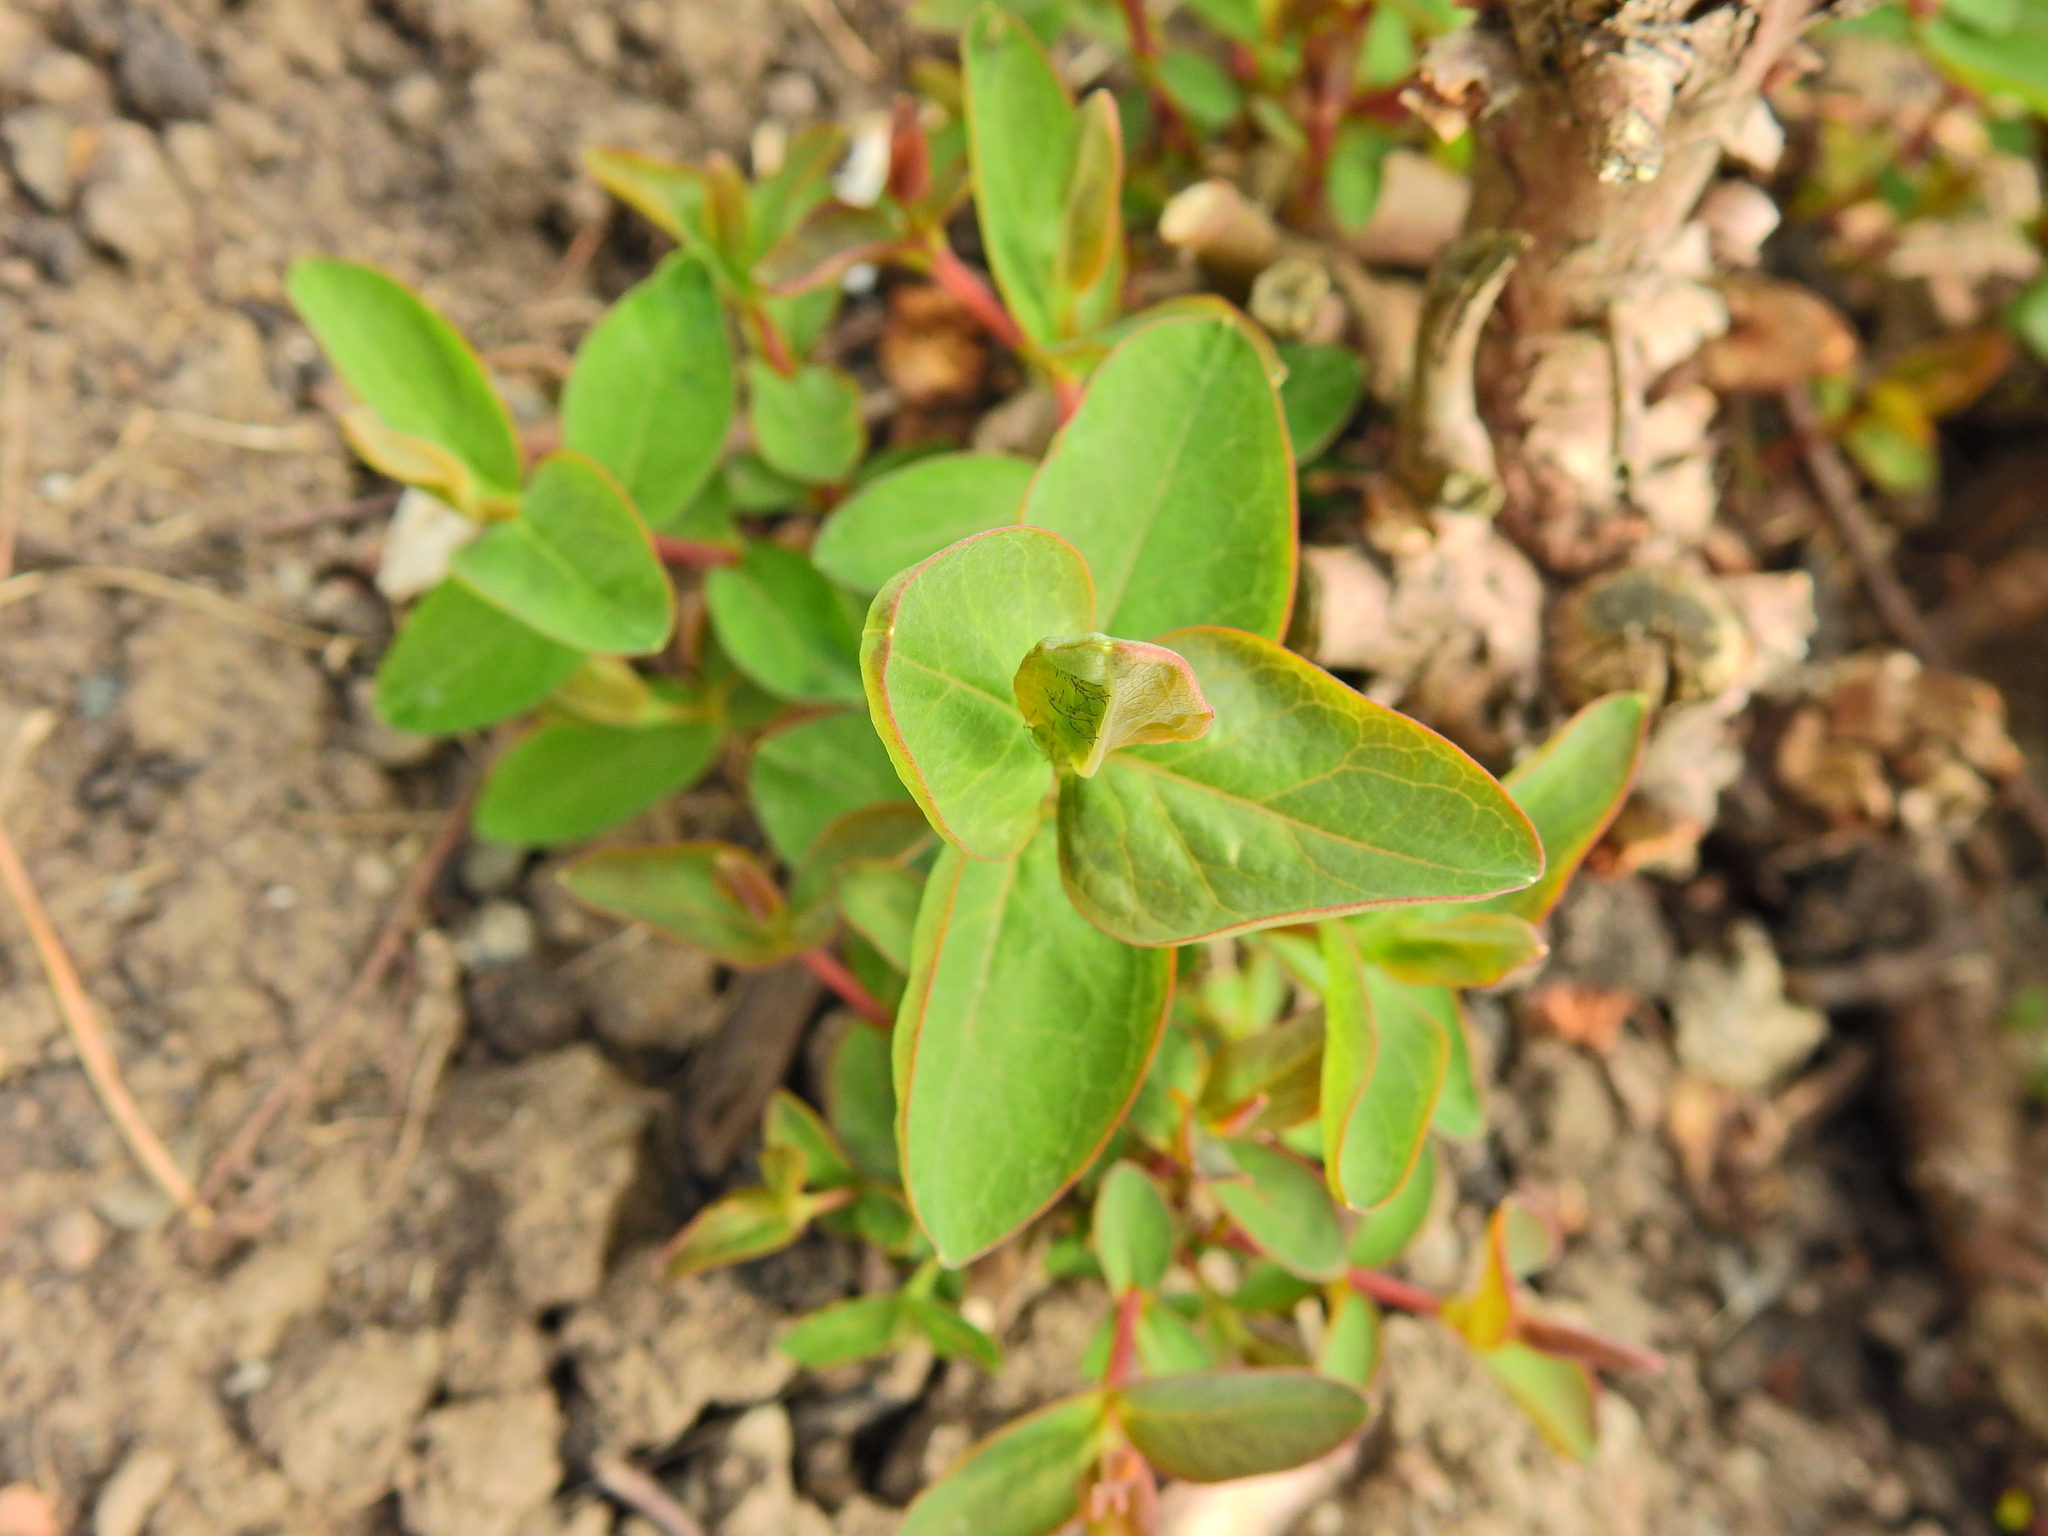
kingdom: Plantae
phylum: Tracheophyta
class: Magnoliopsida
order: Malpighiales
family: Hypericaceae
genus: Hypericum
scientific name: Hypericum inodorum
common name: Tall tutsan
